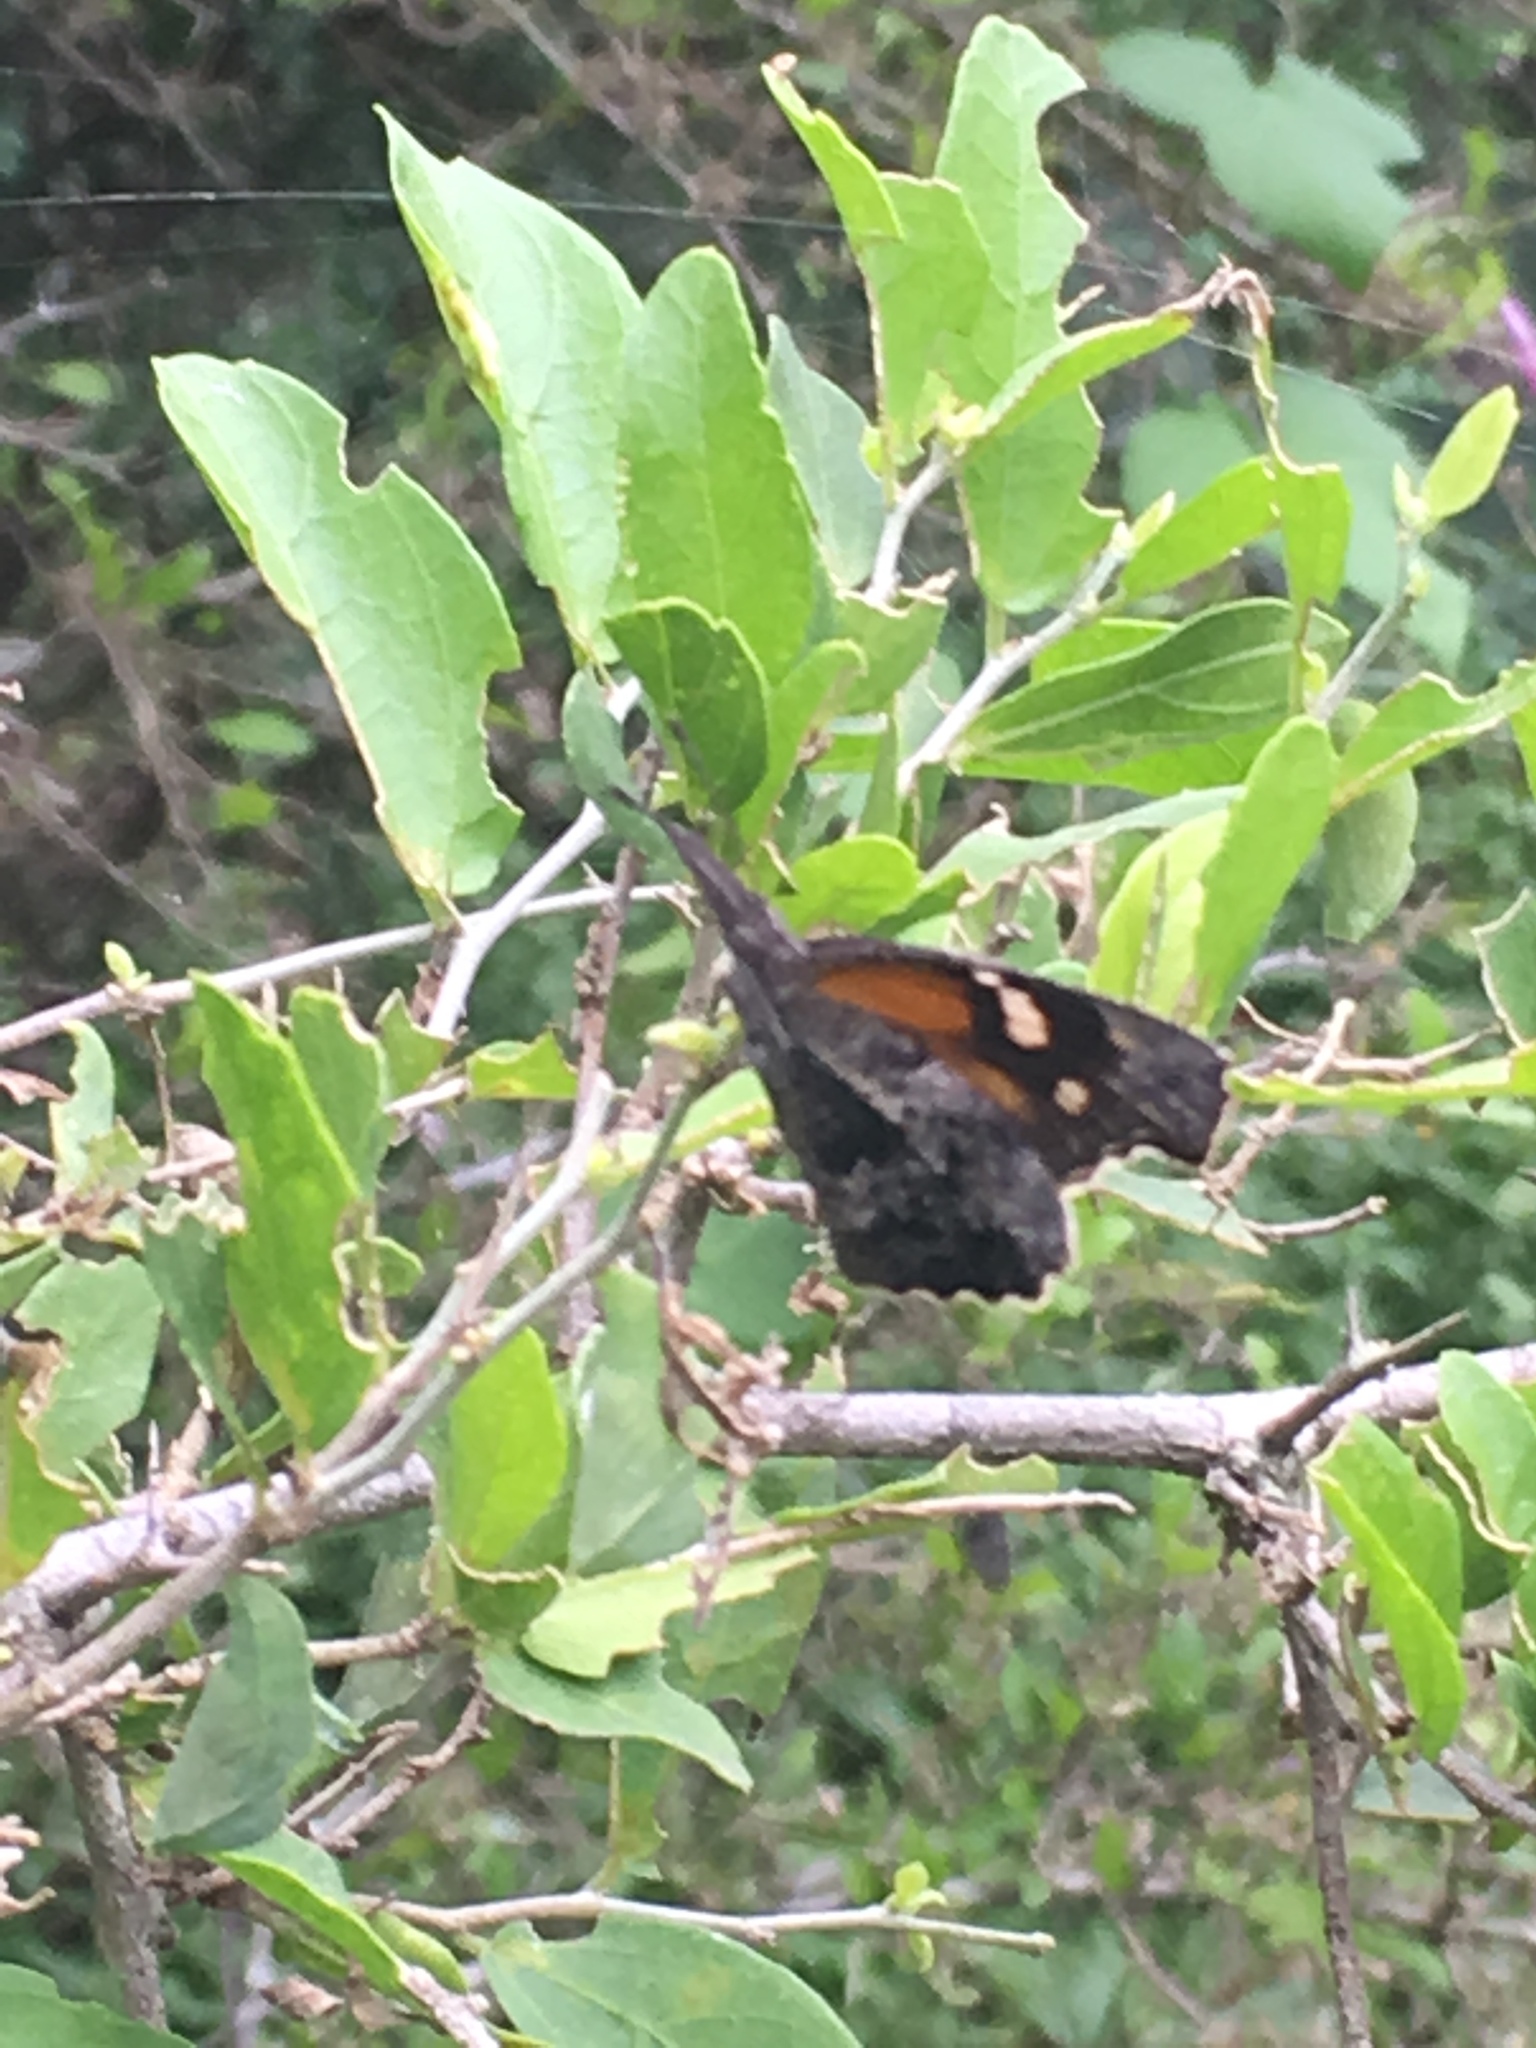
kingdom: Animalia
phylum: Arthropoda
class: Insecta
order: Lepidoptera
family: Nymphalidae
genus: Libytheana
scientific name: Libytheana carinenta
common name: American snout
